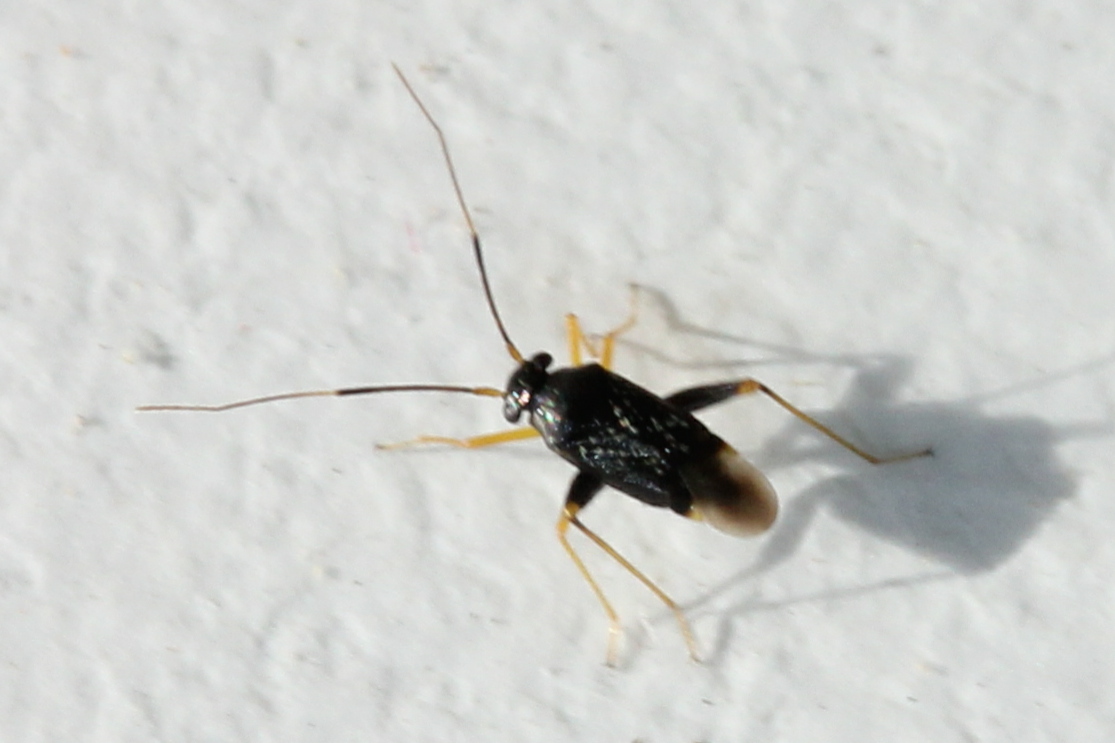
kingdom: Animalia
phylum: Arthropoda
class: Insecta
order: Hemiptera
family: Miridae
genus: Microtechnites
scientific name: Microtechnites bractatus
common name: Garden fleahopper
